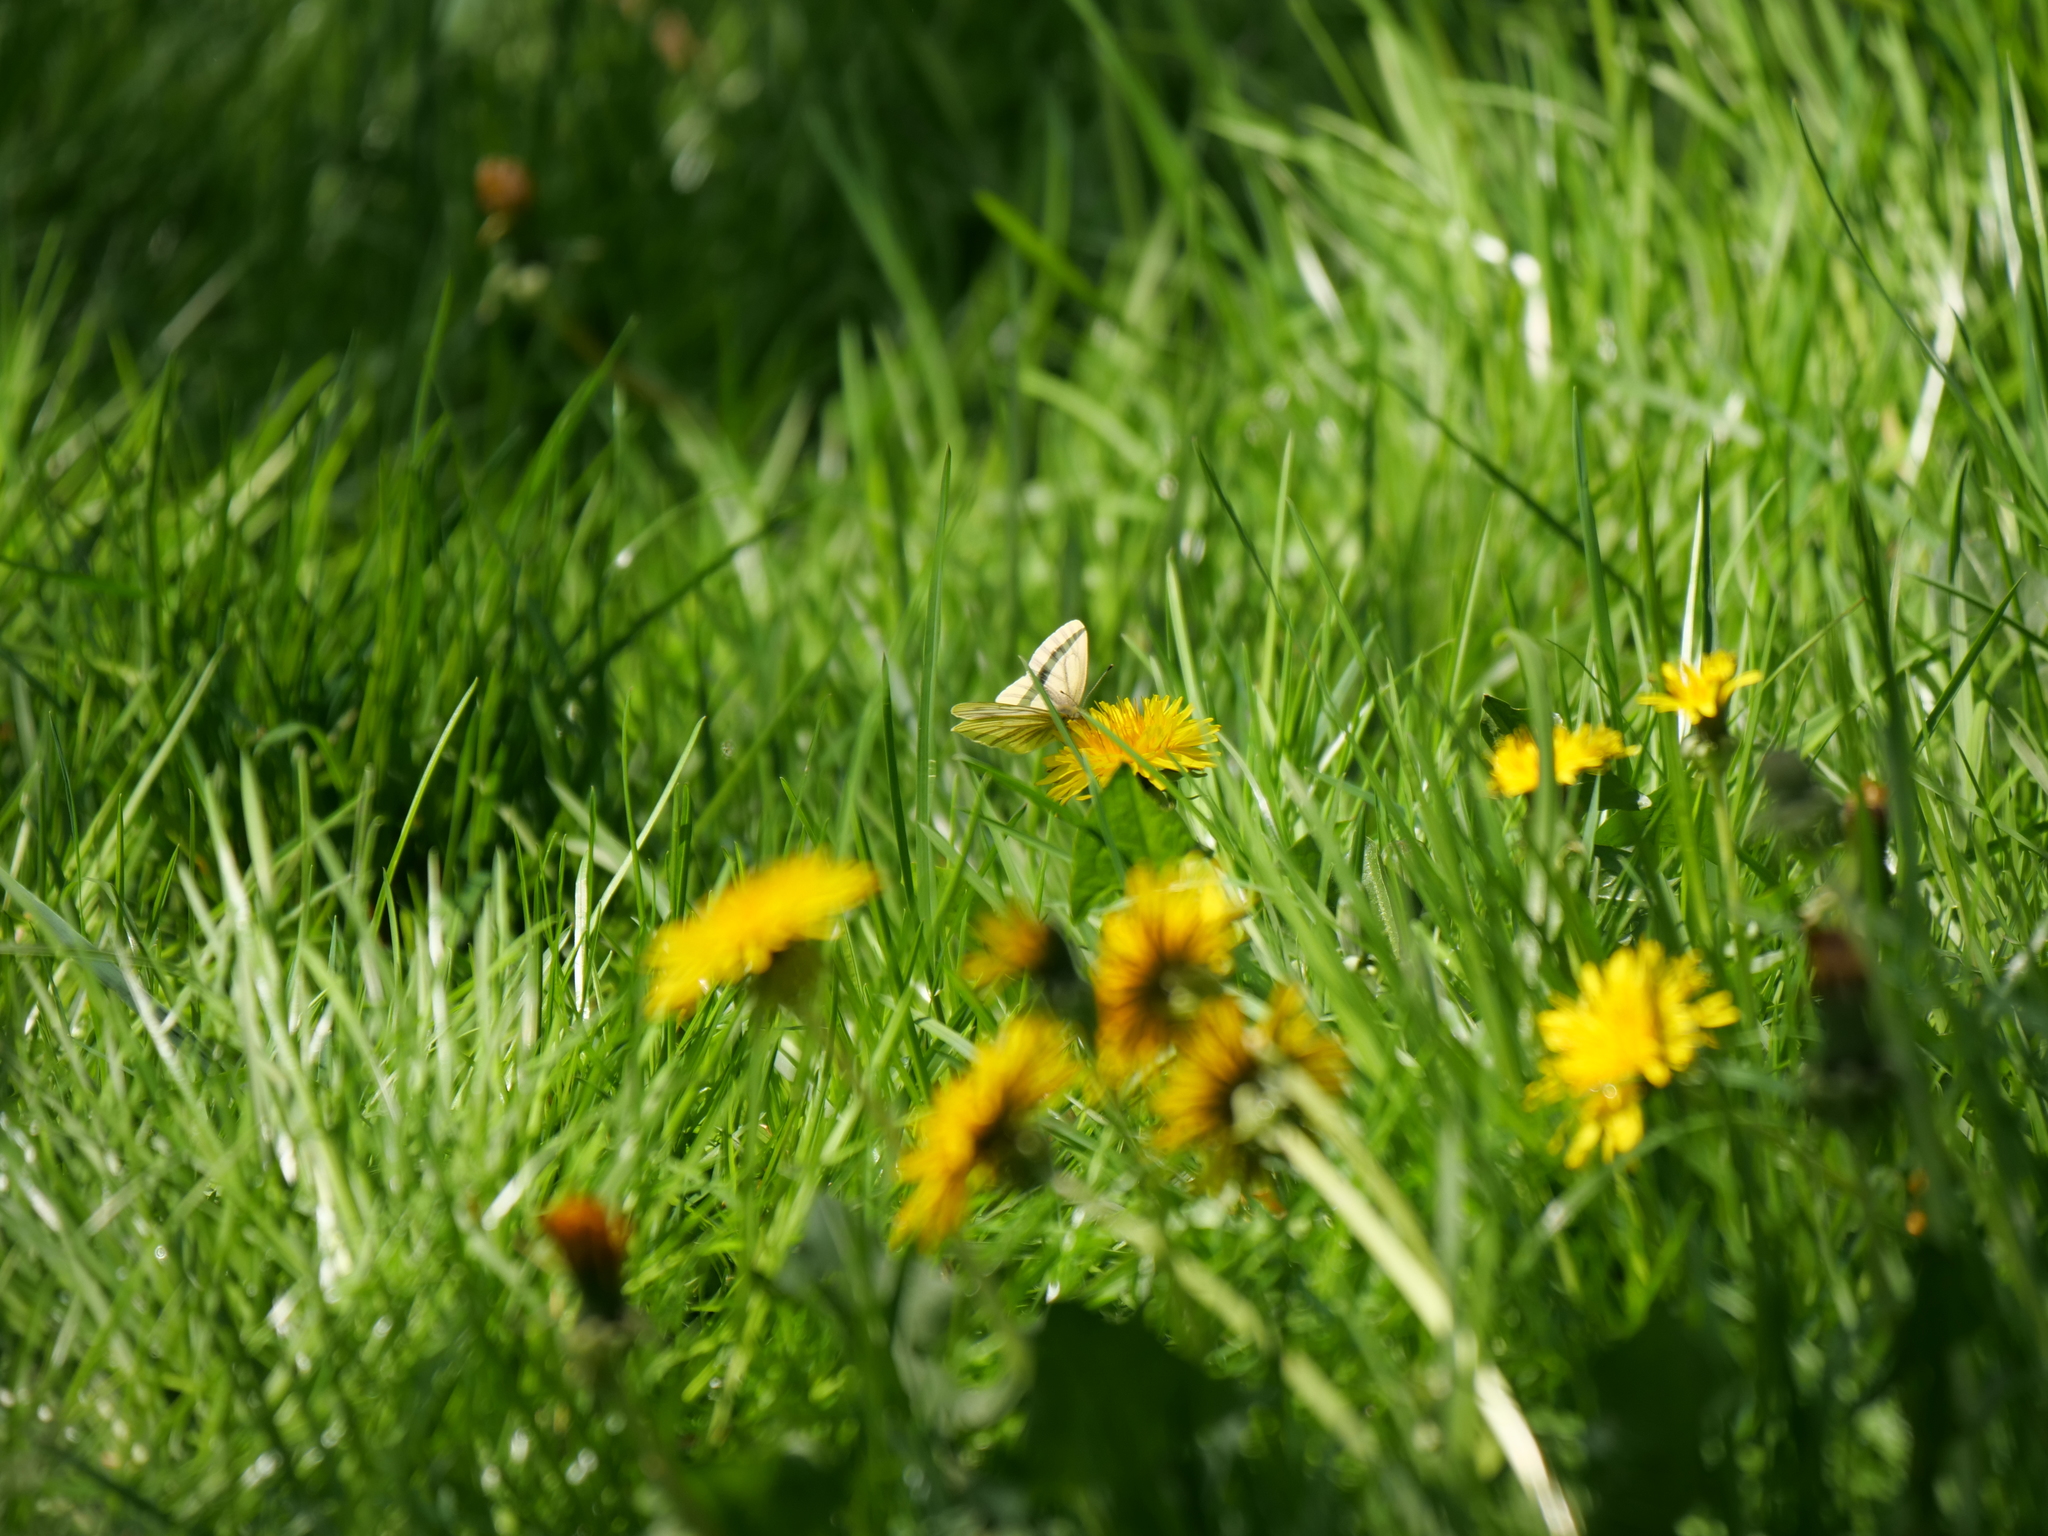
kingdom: Animalia
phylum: Arthropoda
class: Insecta
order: Lepidoptera
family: Pieridae
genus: Pieris
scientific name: Pieris marginalis
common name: Margined white
